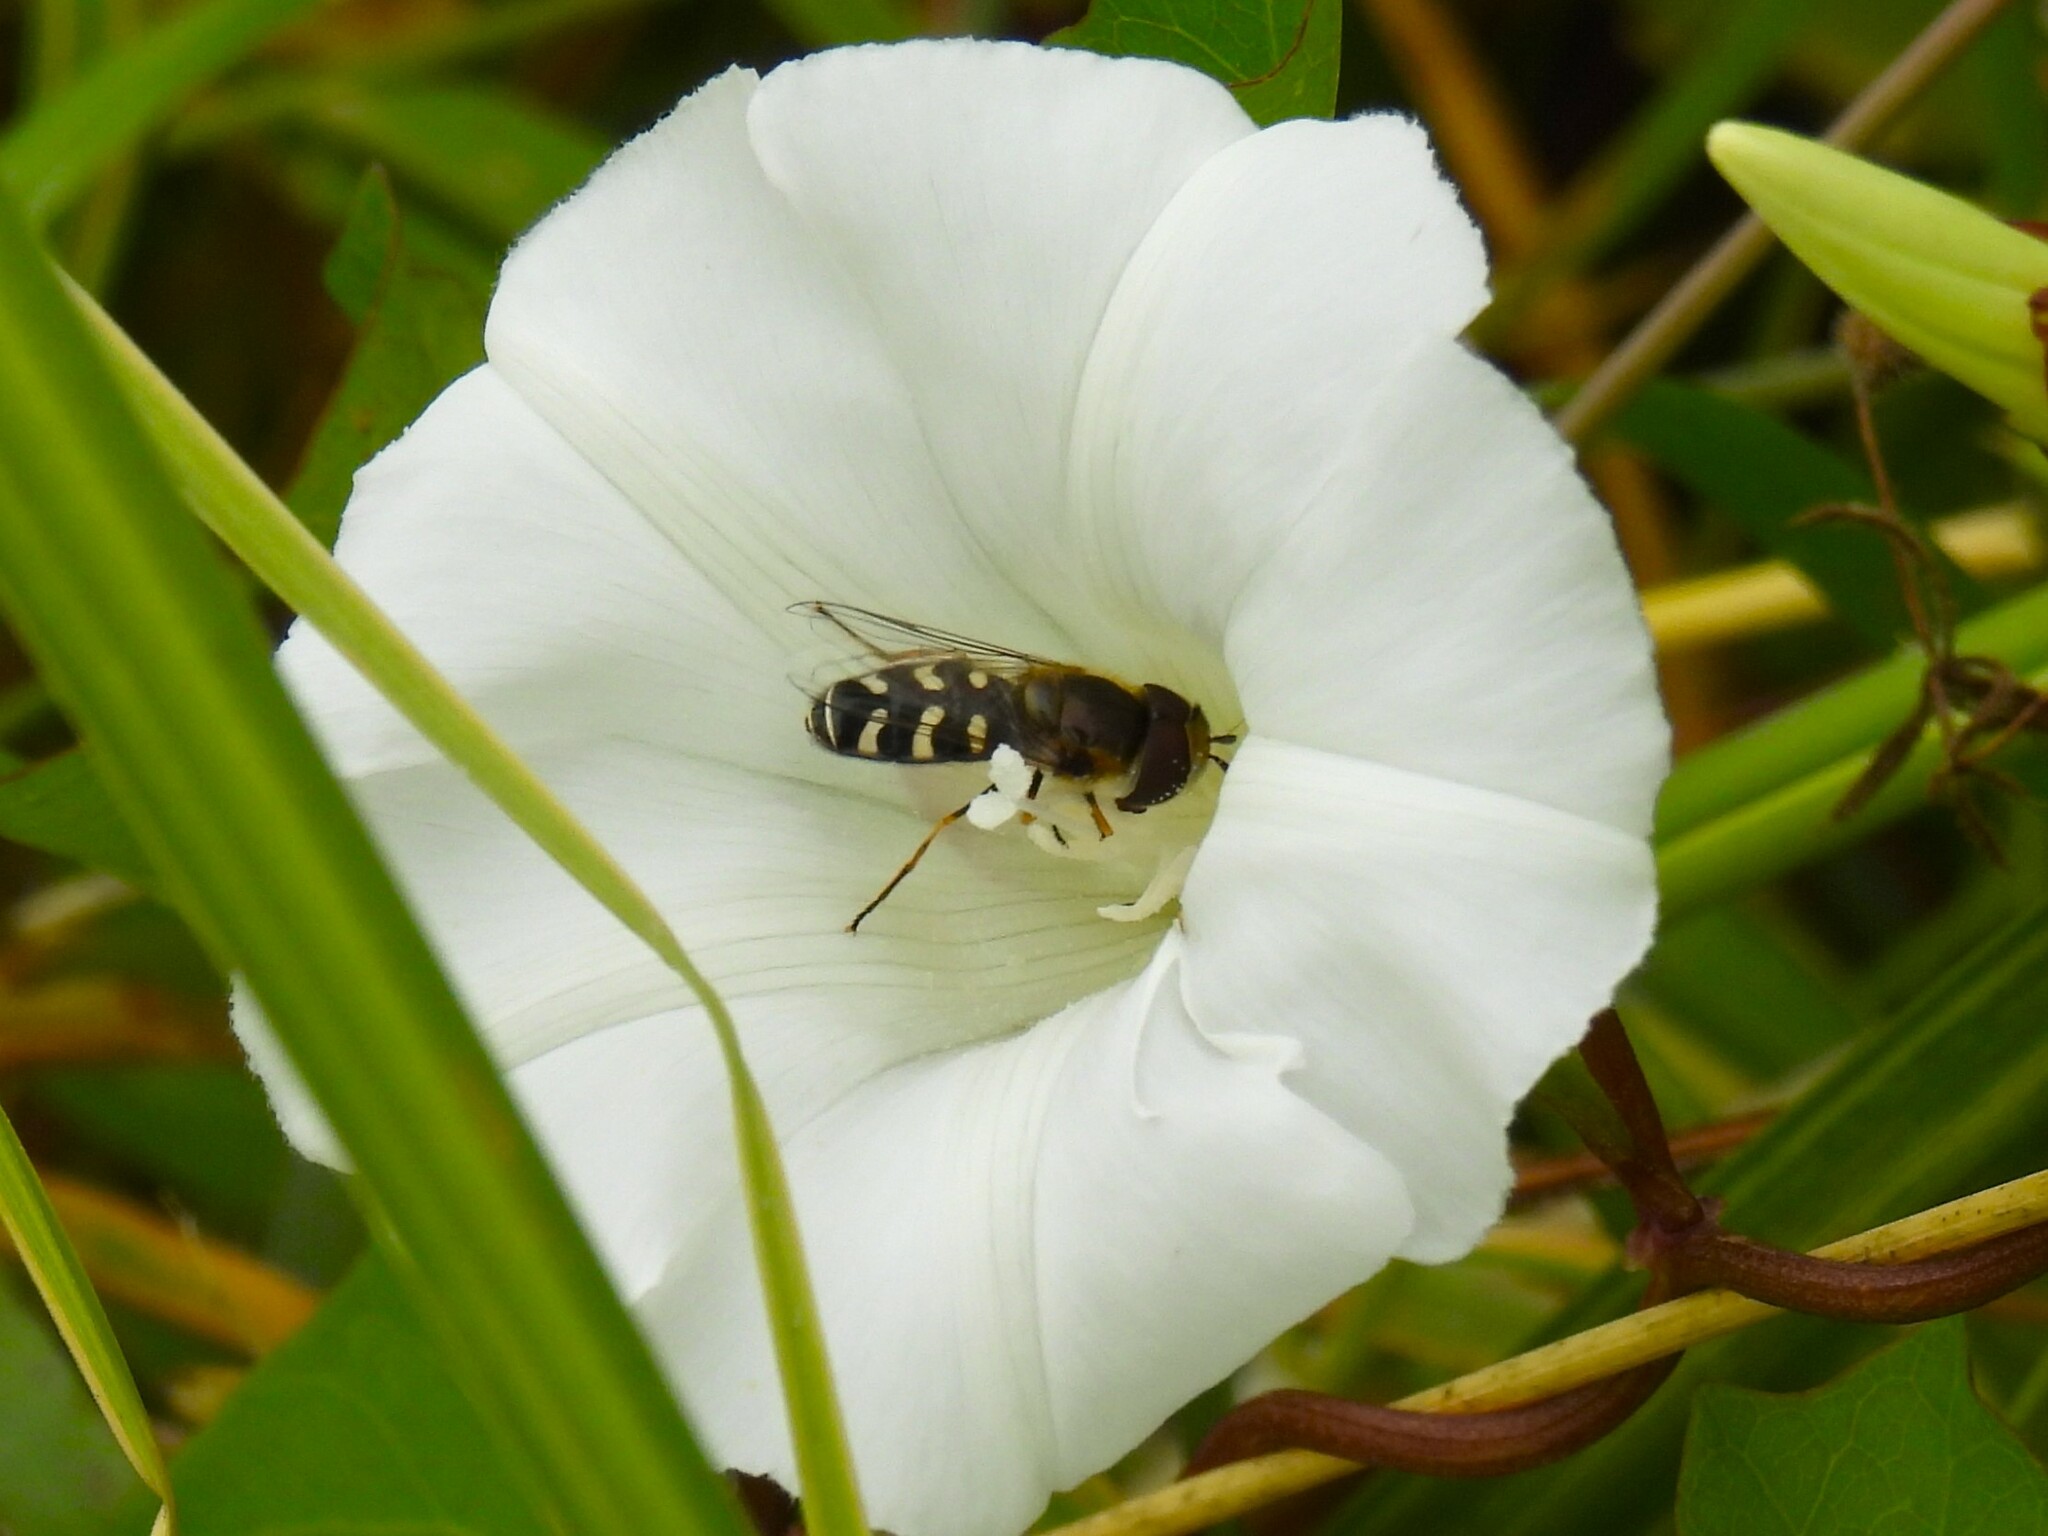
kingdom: Animalia
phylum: Arthropoda
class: Insecta
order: Diptera
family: Syrphidae
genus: Scaeva
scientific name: Scaeva pyrastri
